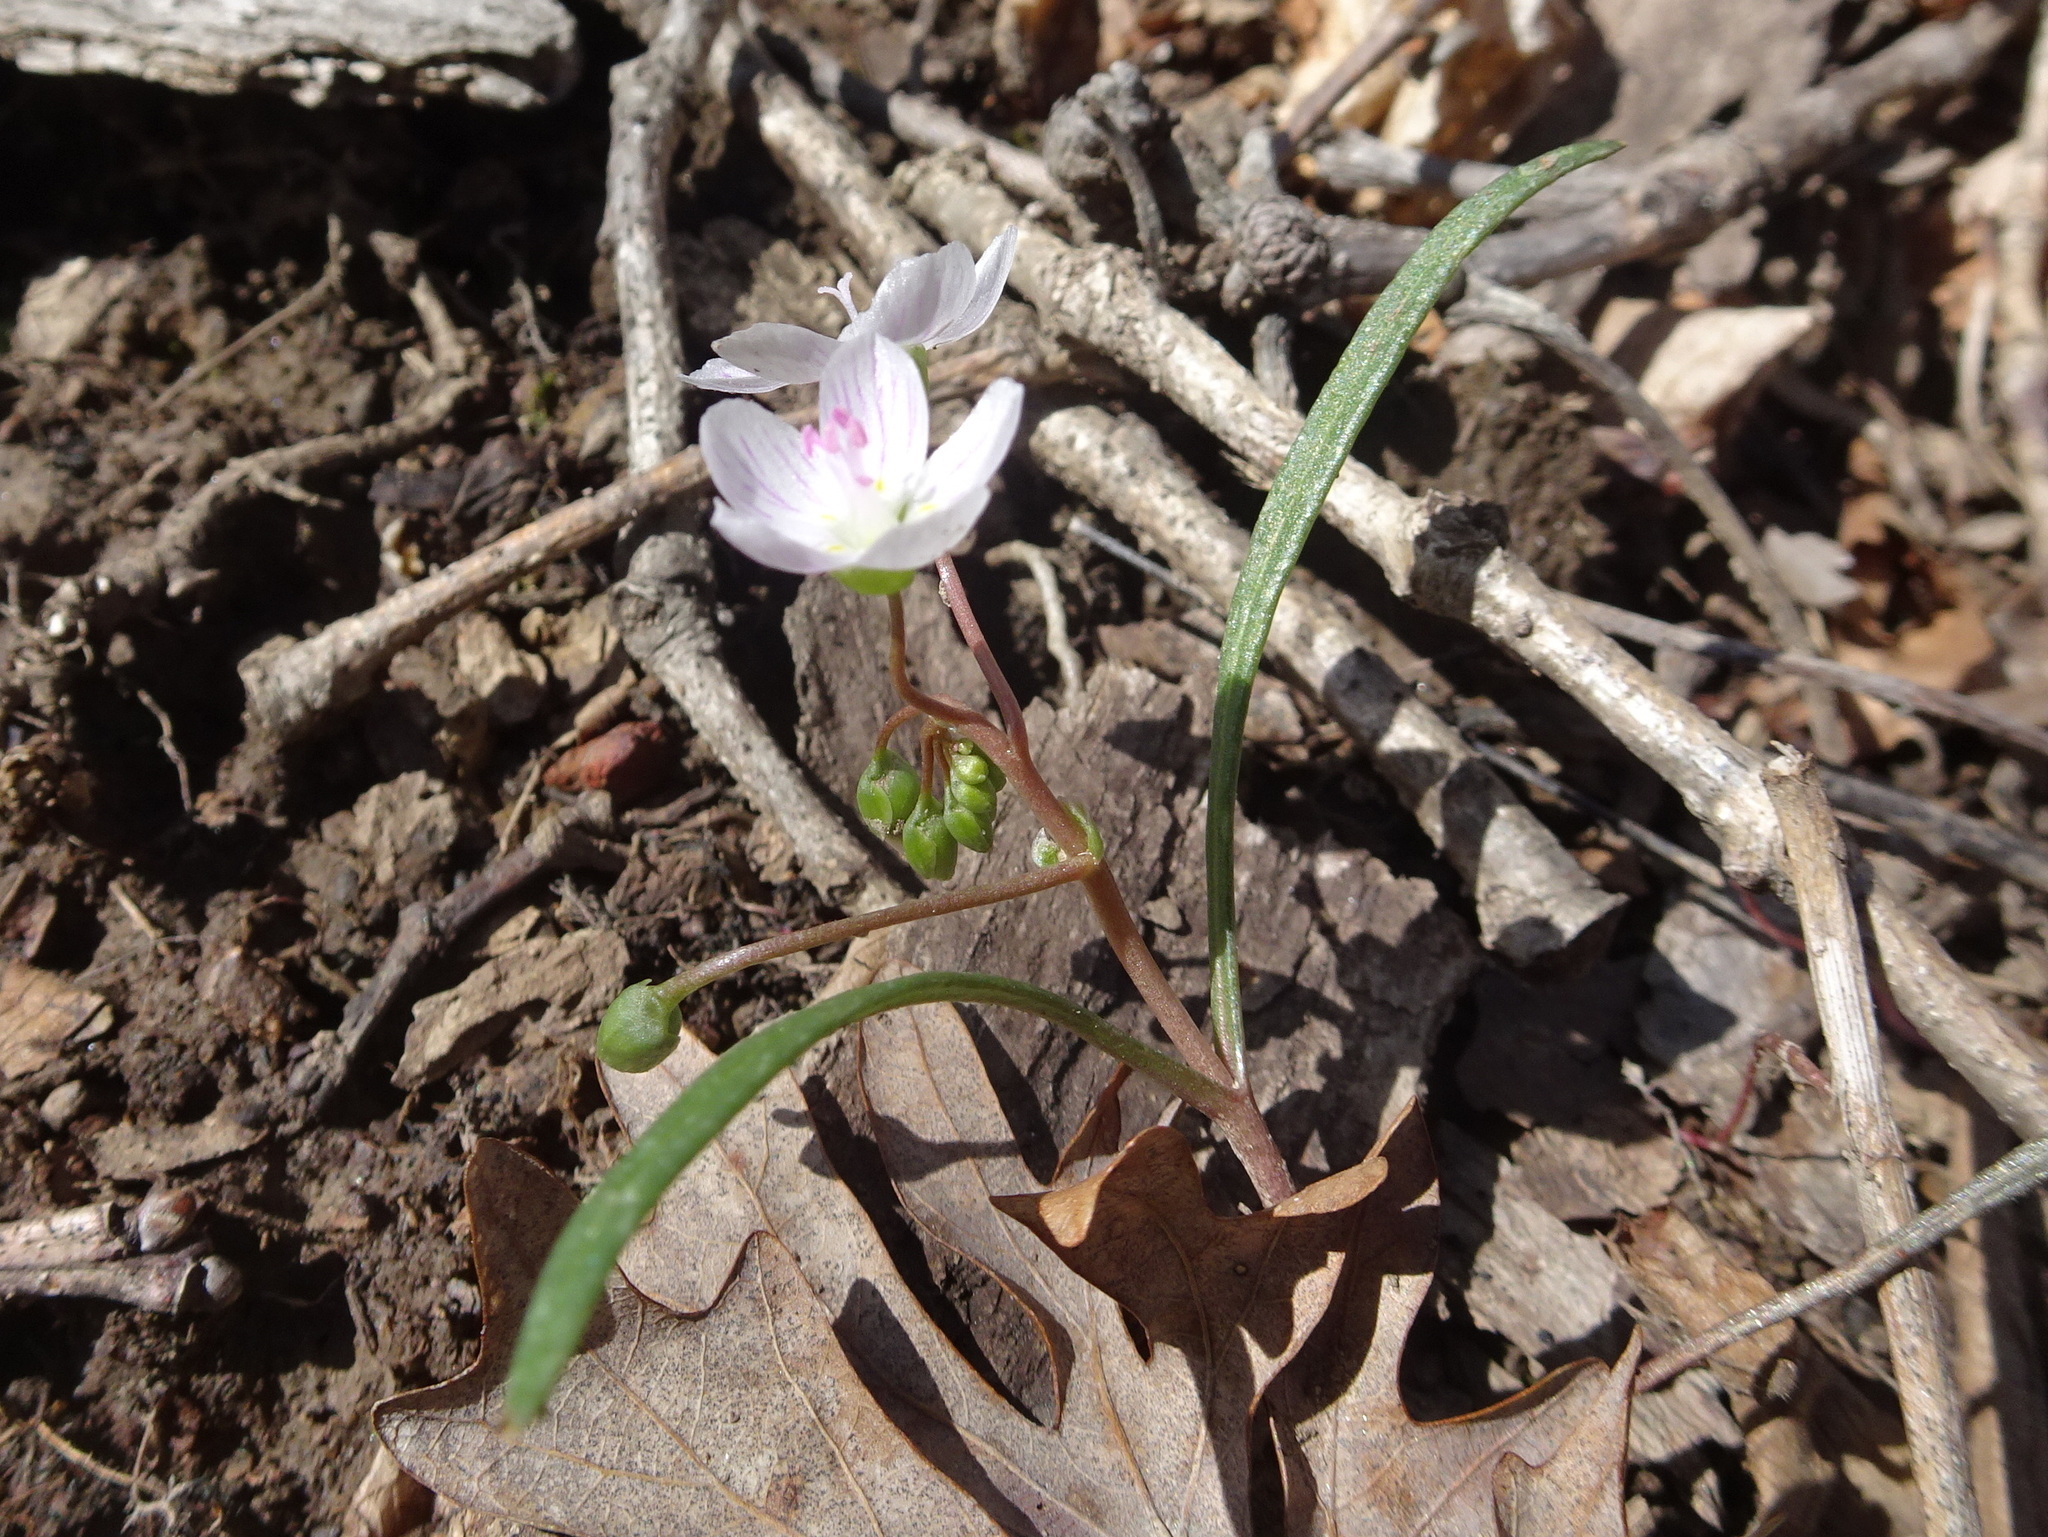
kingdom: Plantae
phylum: Tracheophyta
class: Magnoliopsida
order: Caryophyllales
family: Montiaceae
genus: Claytonia
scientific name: Claytonia virginica
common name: Virginia springbeauty
